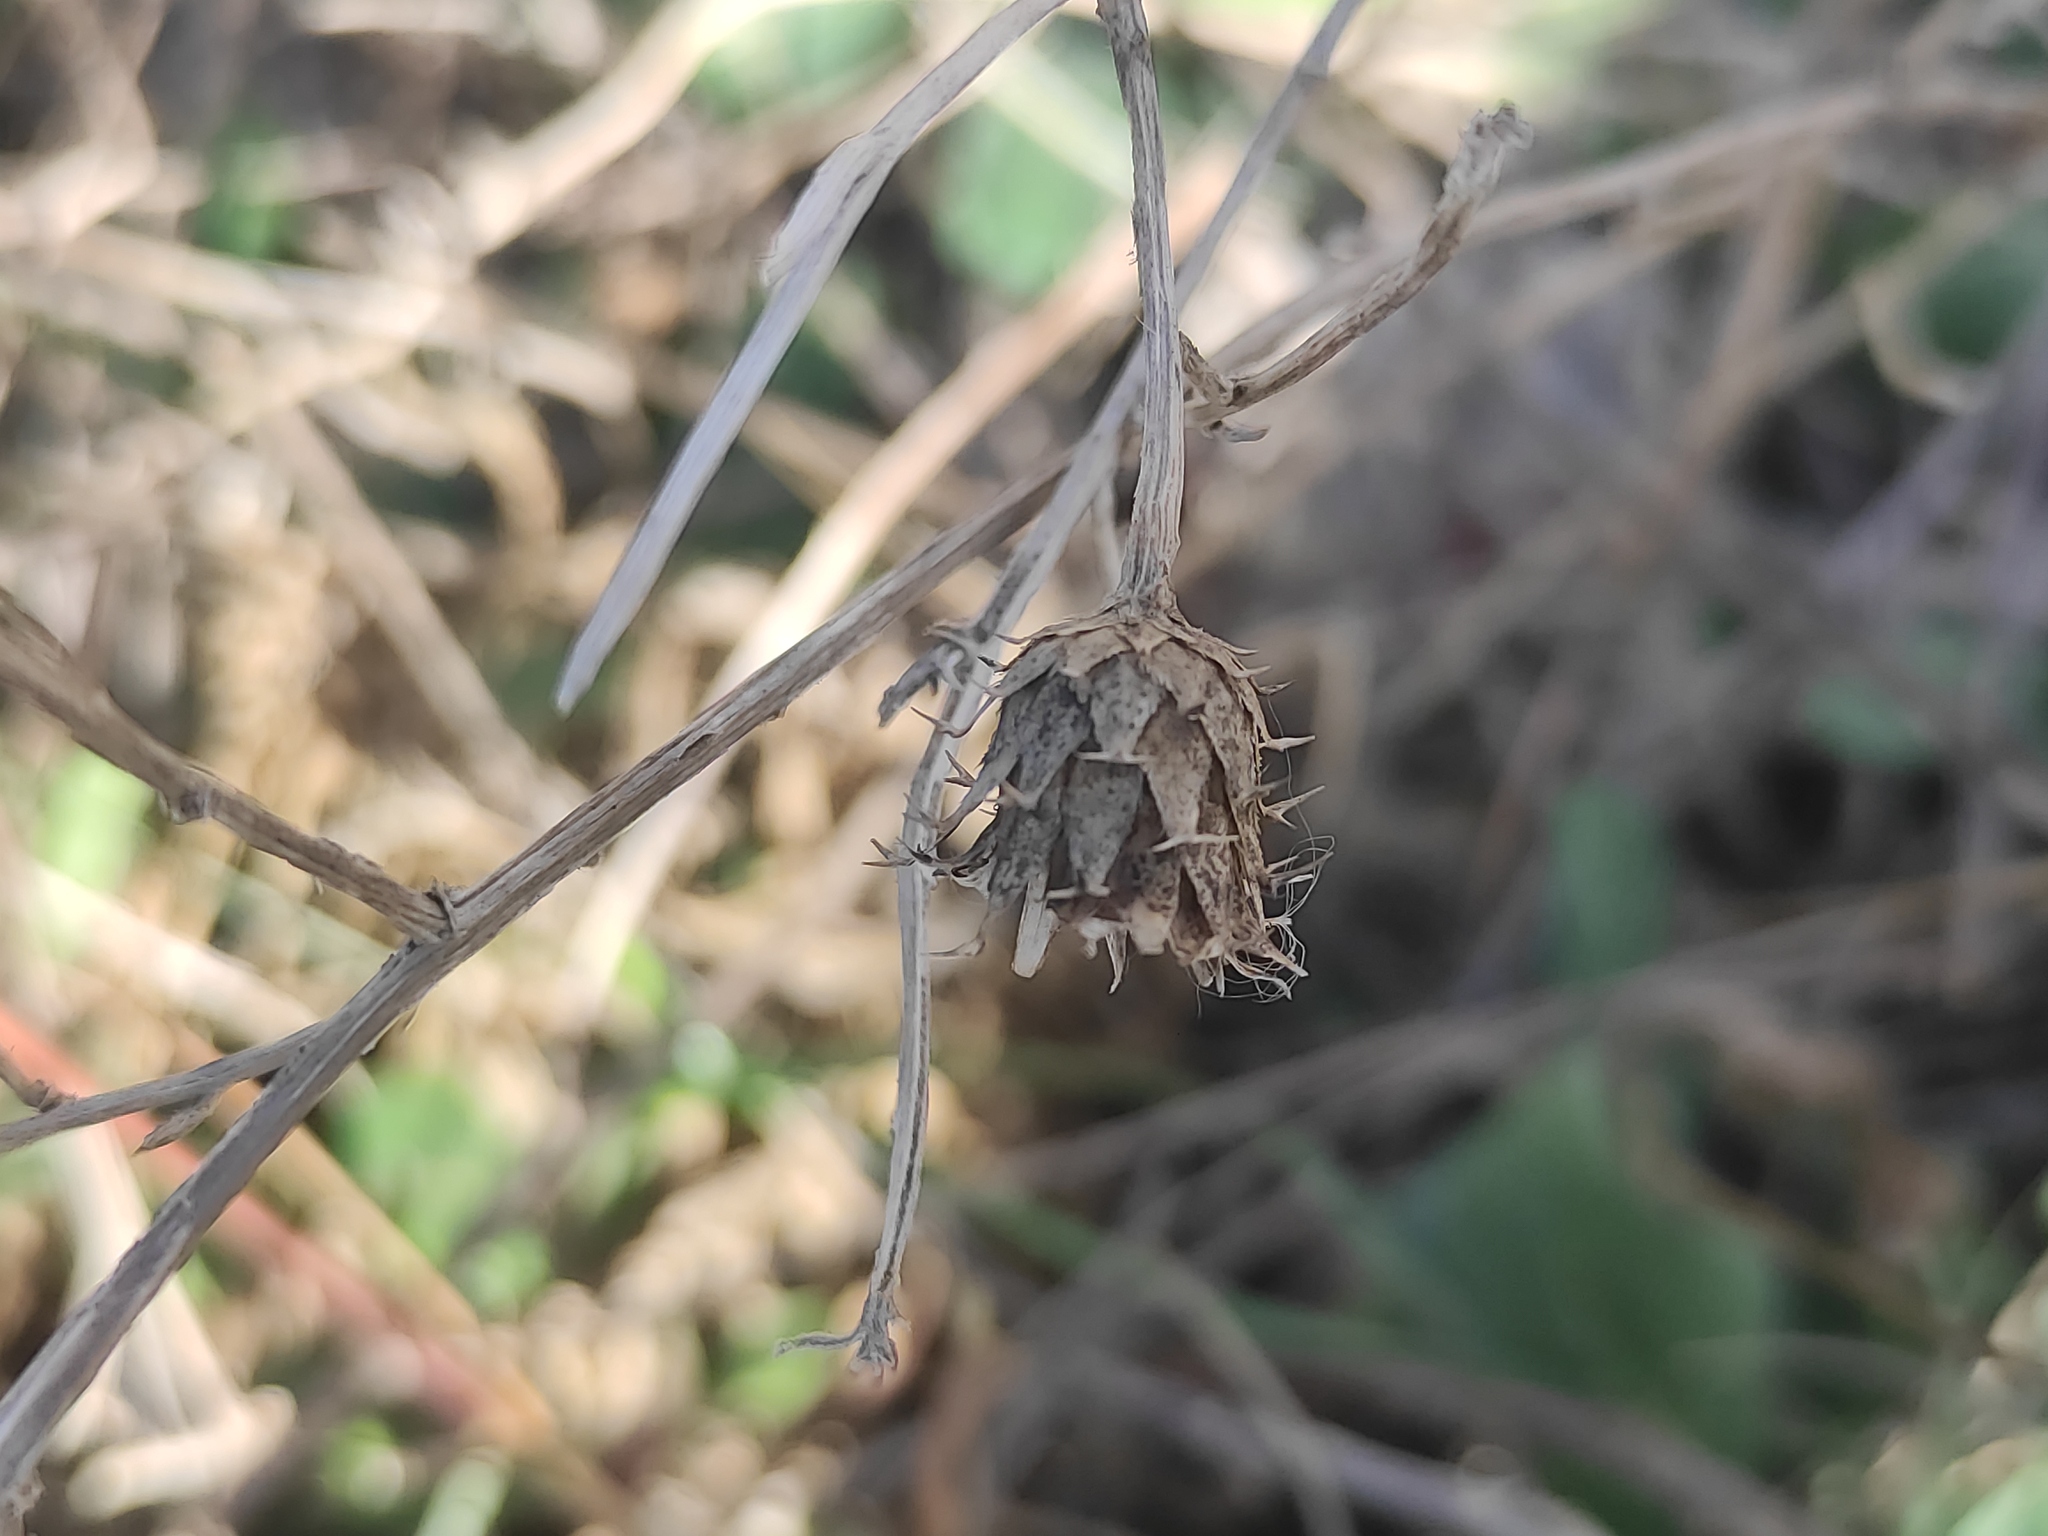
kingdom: Plantae
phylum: Tracheophyta
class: Magnoliopsida
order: Asterales
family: Asteraceae
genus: Centaurea
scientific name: Centaurea aspera
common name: Rough star-thistle
